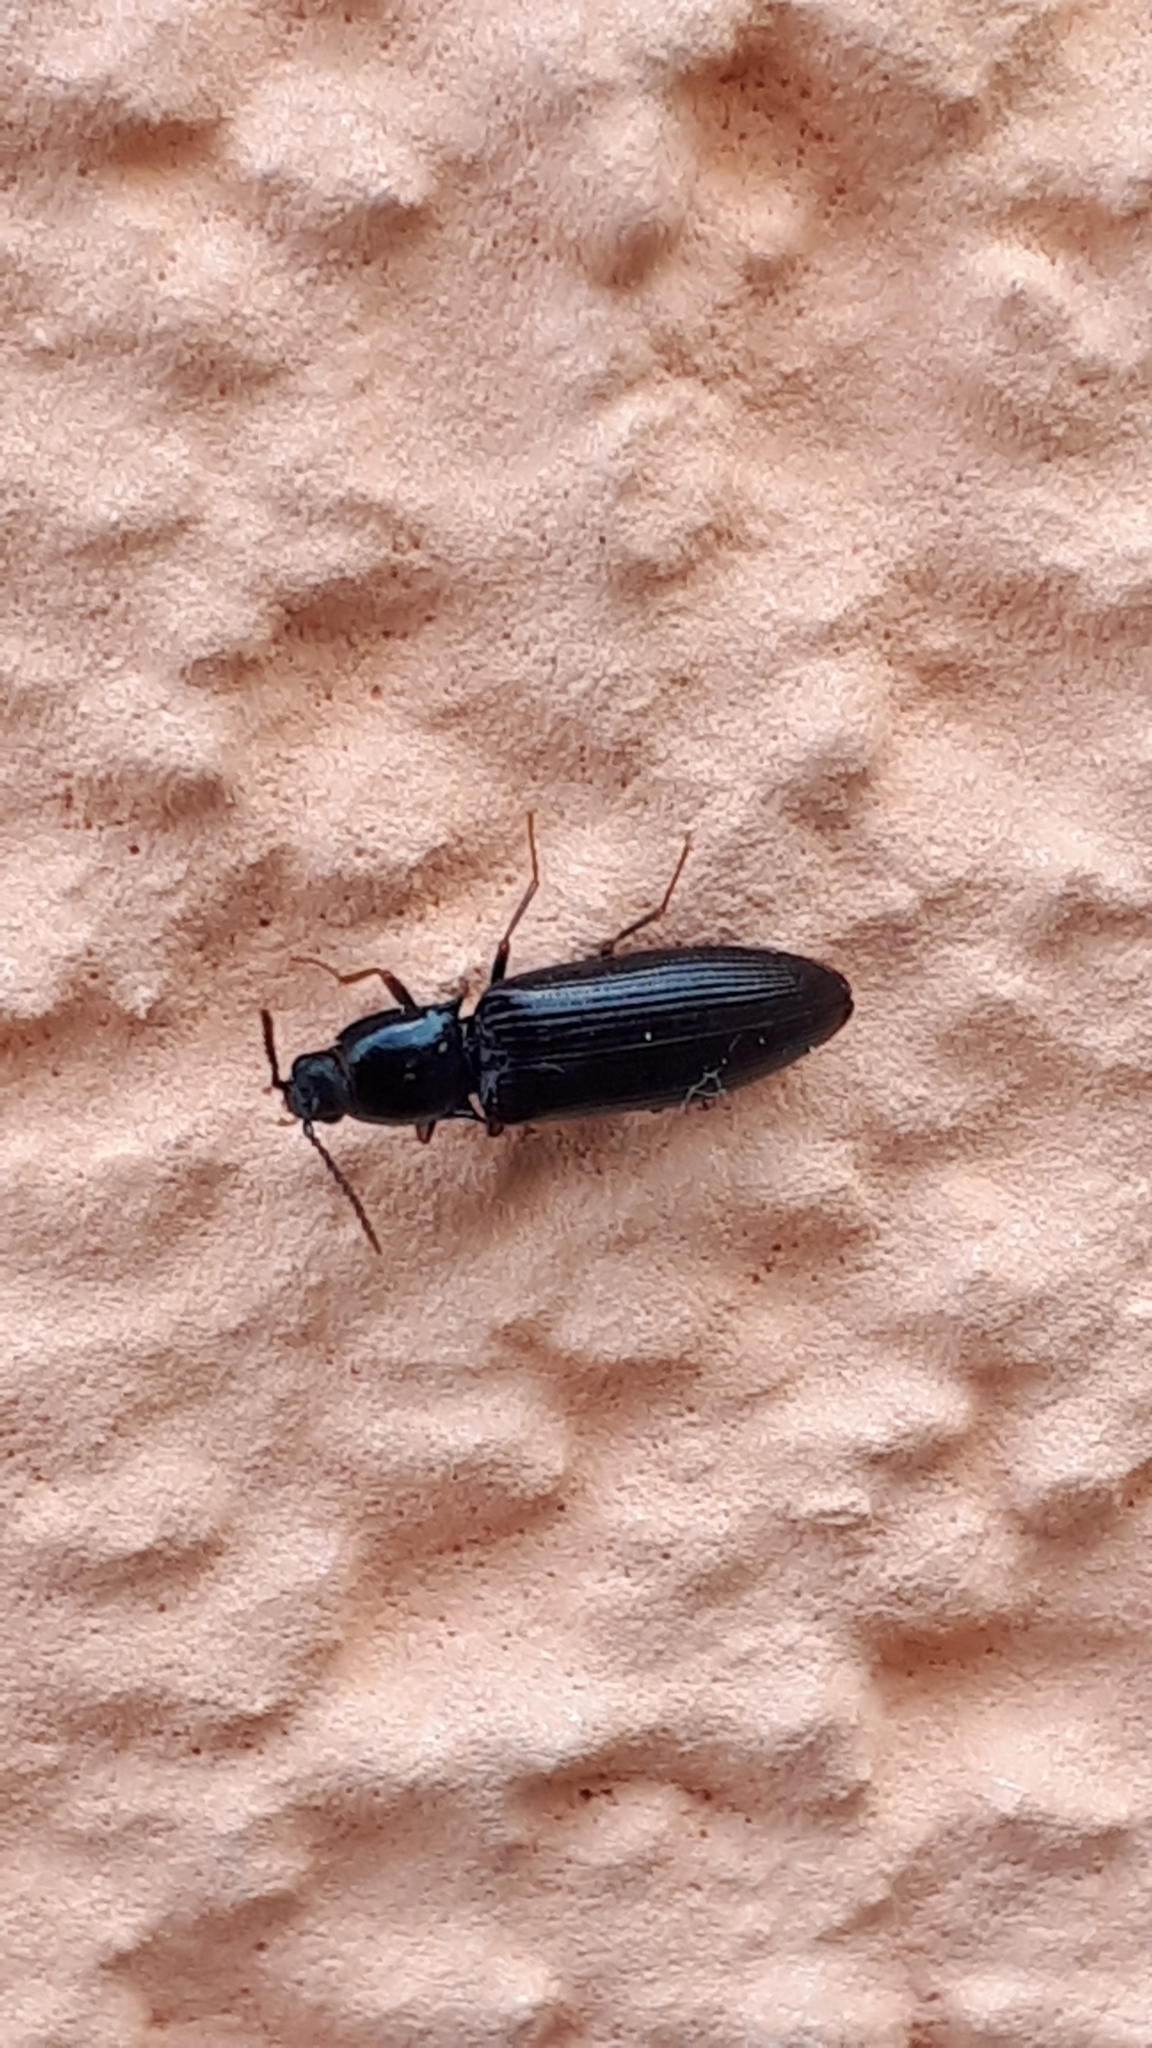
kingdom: Animalia
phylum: Arthropoda
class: Insecta
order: Coleoptera
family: Elateridae
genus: Hypoganus
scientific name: Hypoganus inunctus
